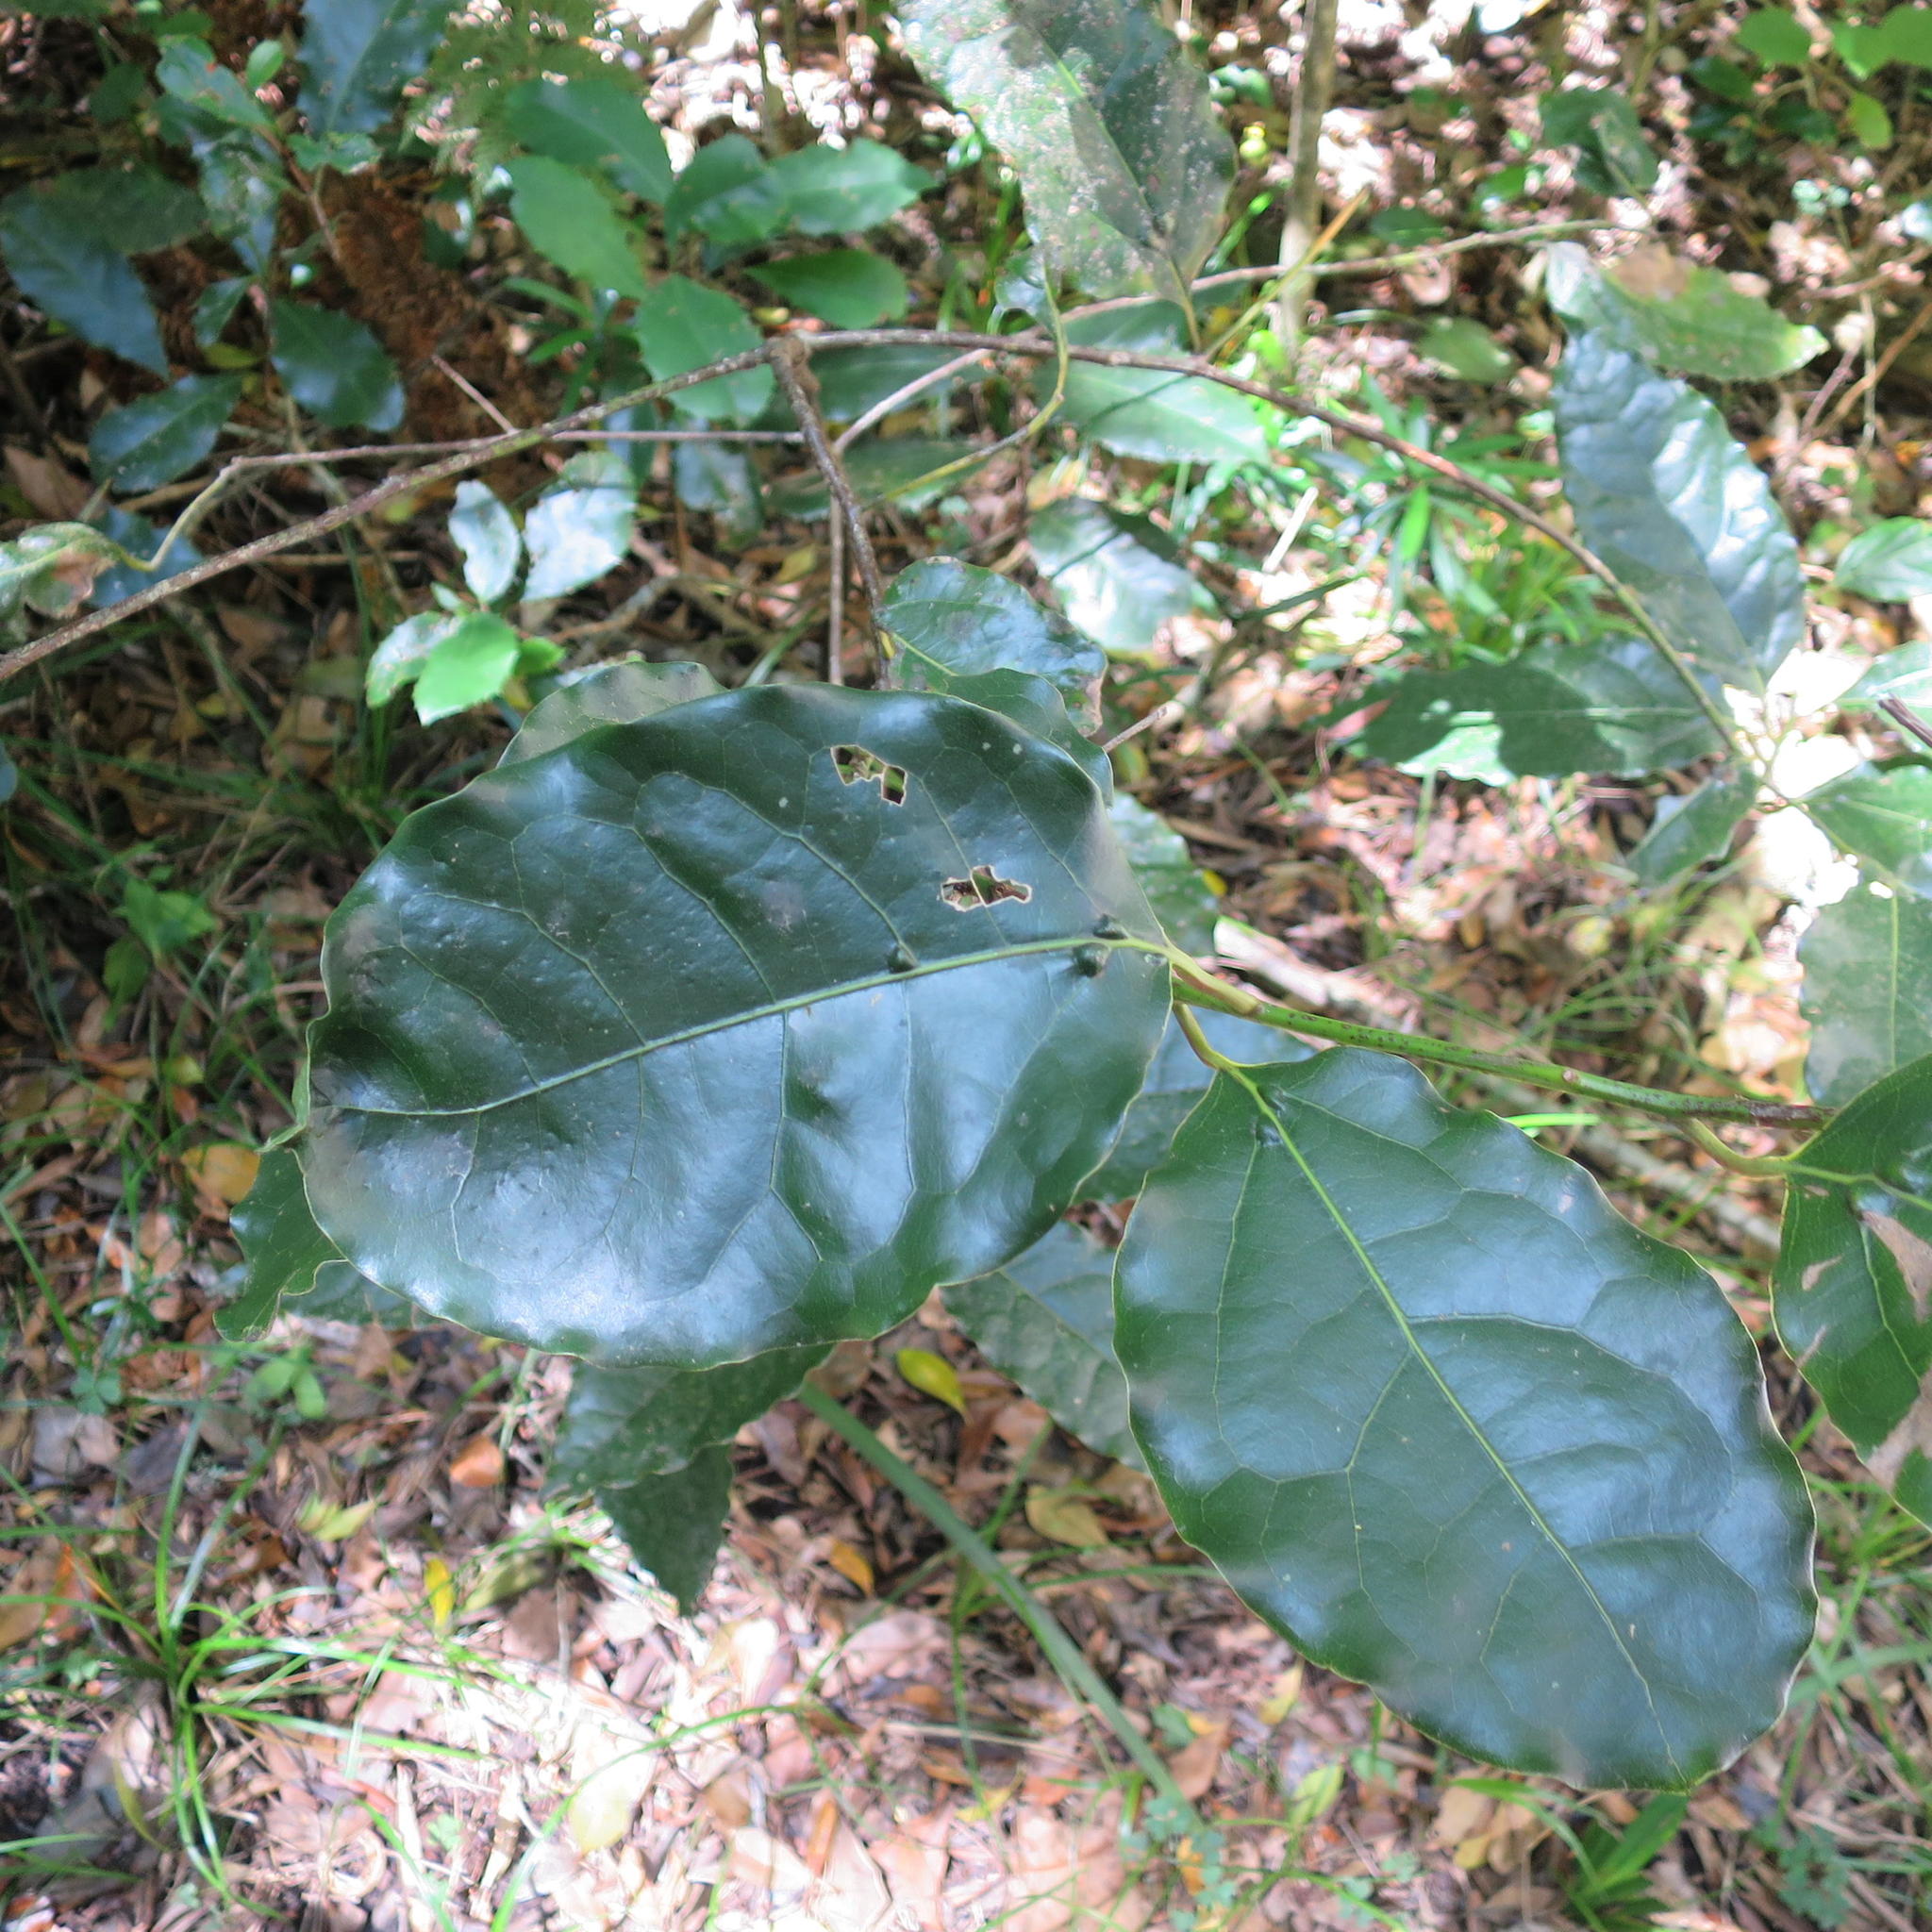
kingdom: Plantae
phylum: Tracheophyta
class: Magnoliopsida
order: Laurales
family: Lauraceae
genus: Ocotea
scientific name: Ocotea bullata
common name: Black stinkwood
